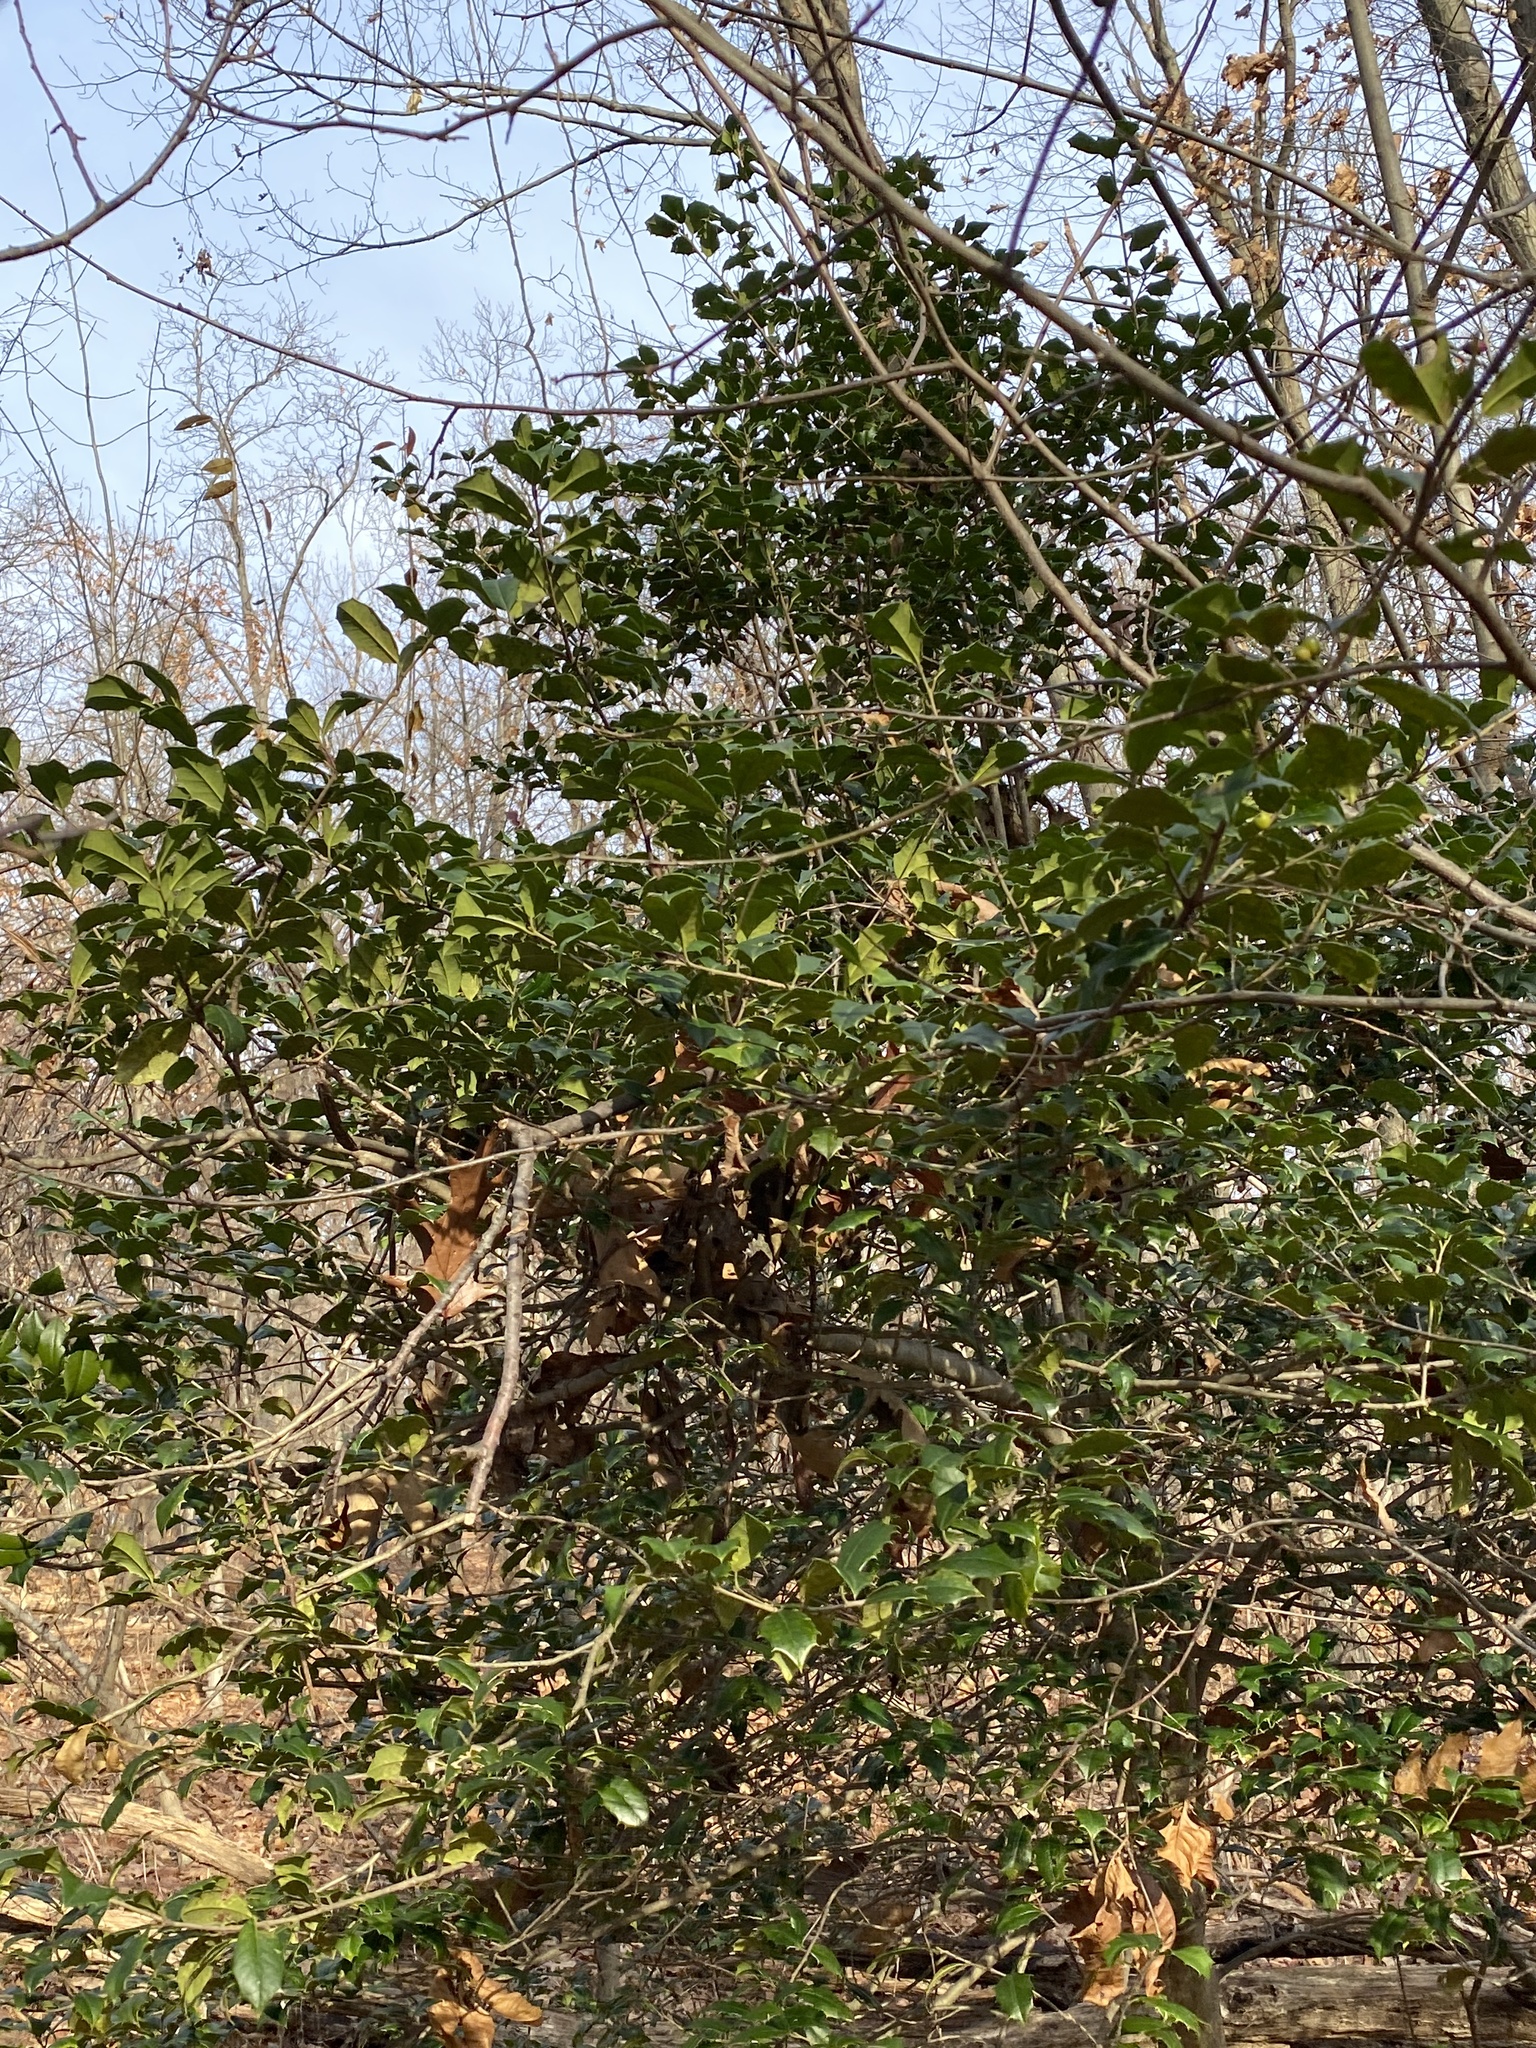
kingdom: Plantae
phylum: Tracheophyta
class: Magnoliopsida
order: Aquifoliales
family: Aquifoliaceae
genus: Ilex
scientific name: Ilex opaca
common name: American holly
